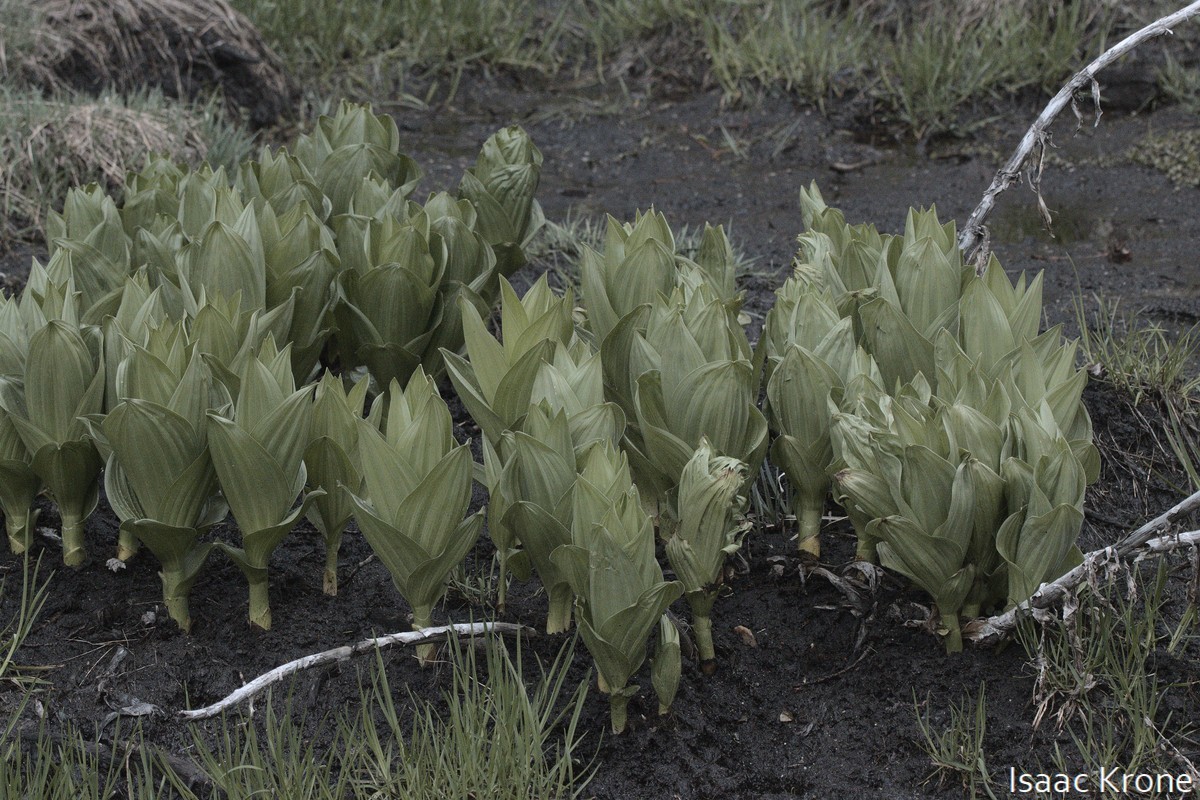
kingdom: Plantae
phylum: Tracheophyta
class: Liliopsida
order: Liliales
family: Melanthiaceae
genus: Veratrum
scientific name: Veratrum californicum
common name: California veratrum
